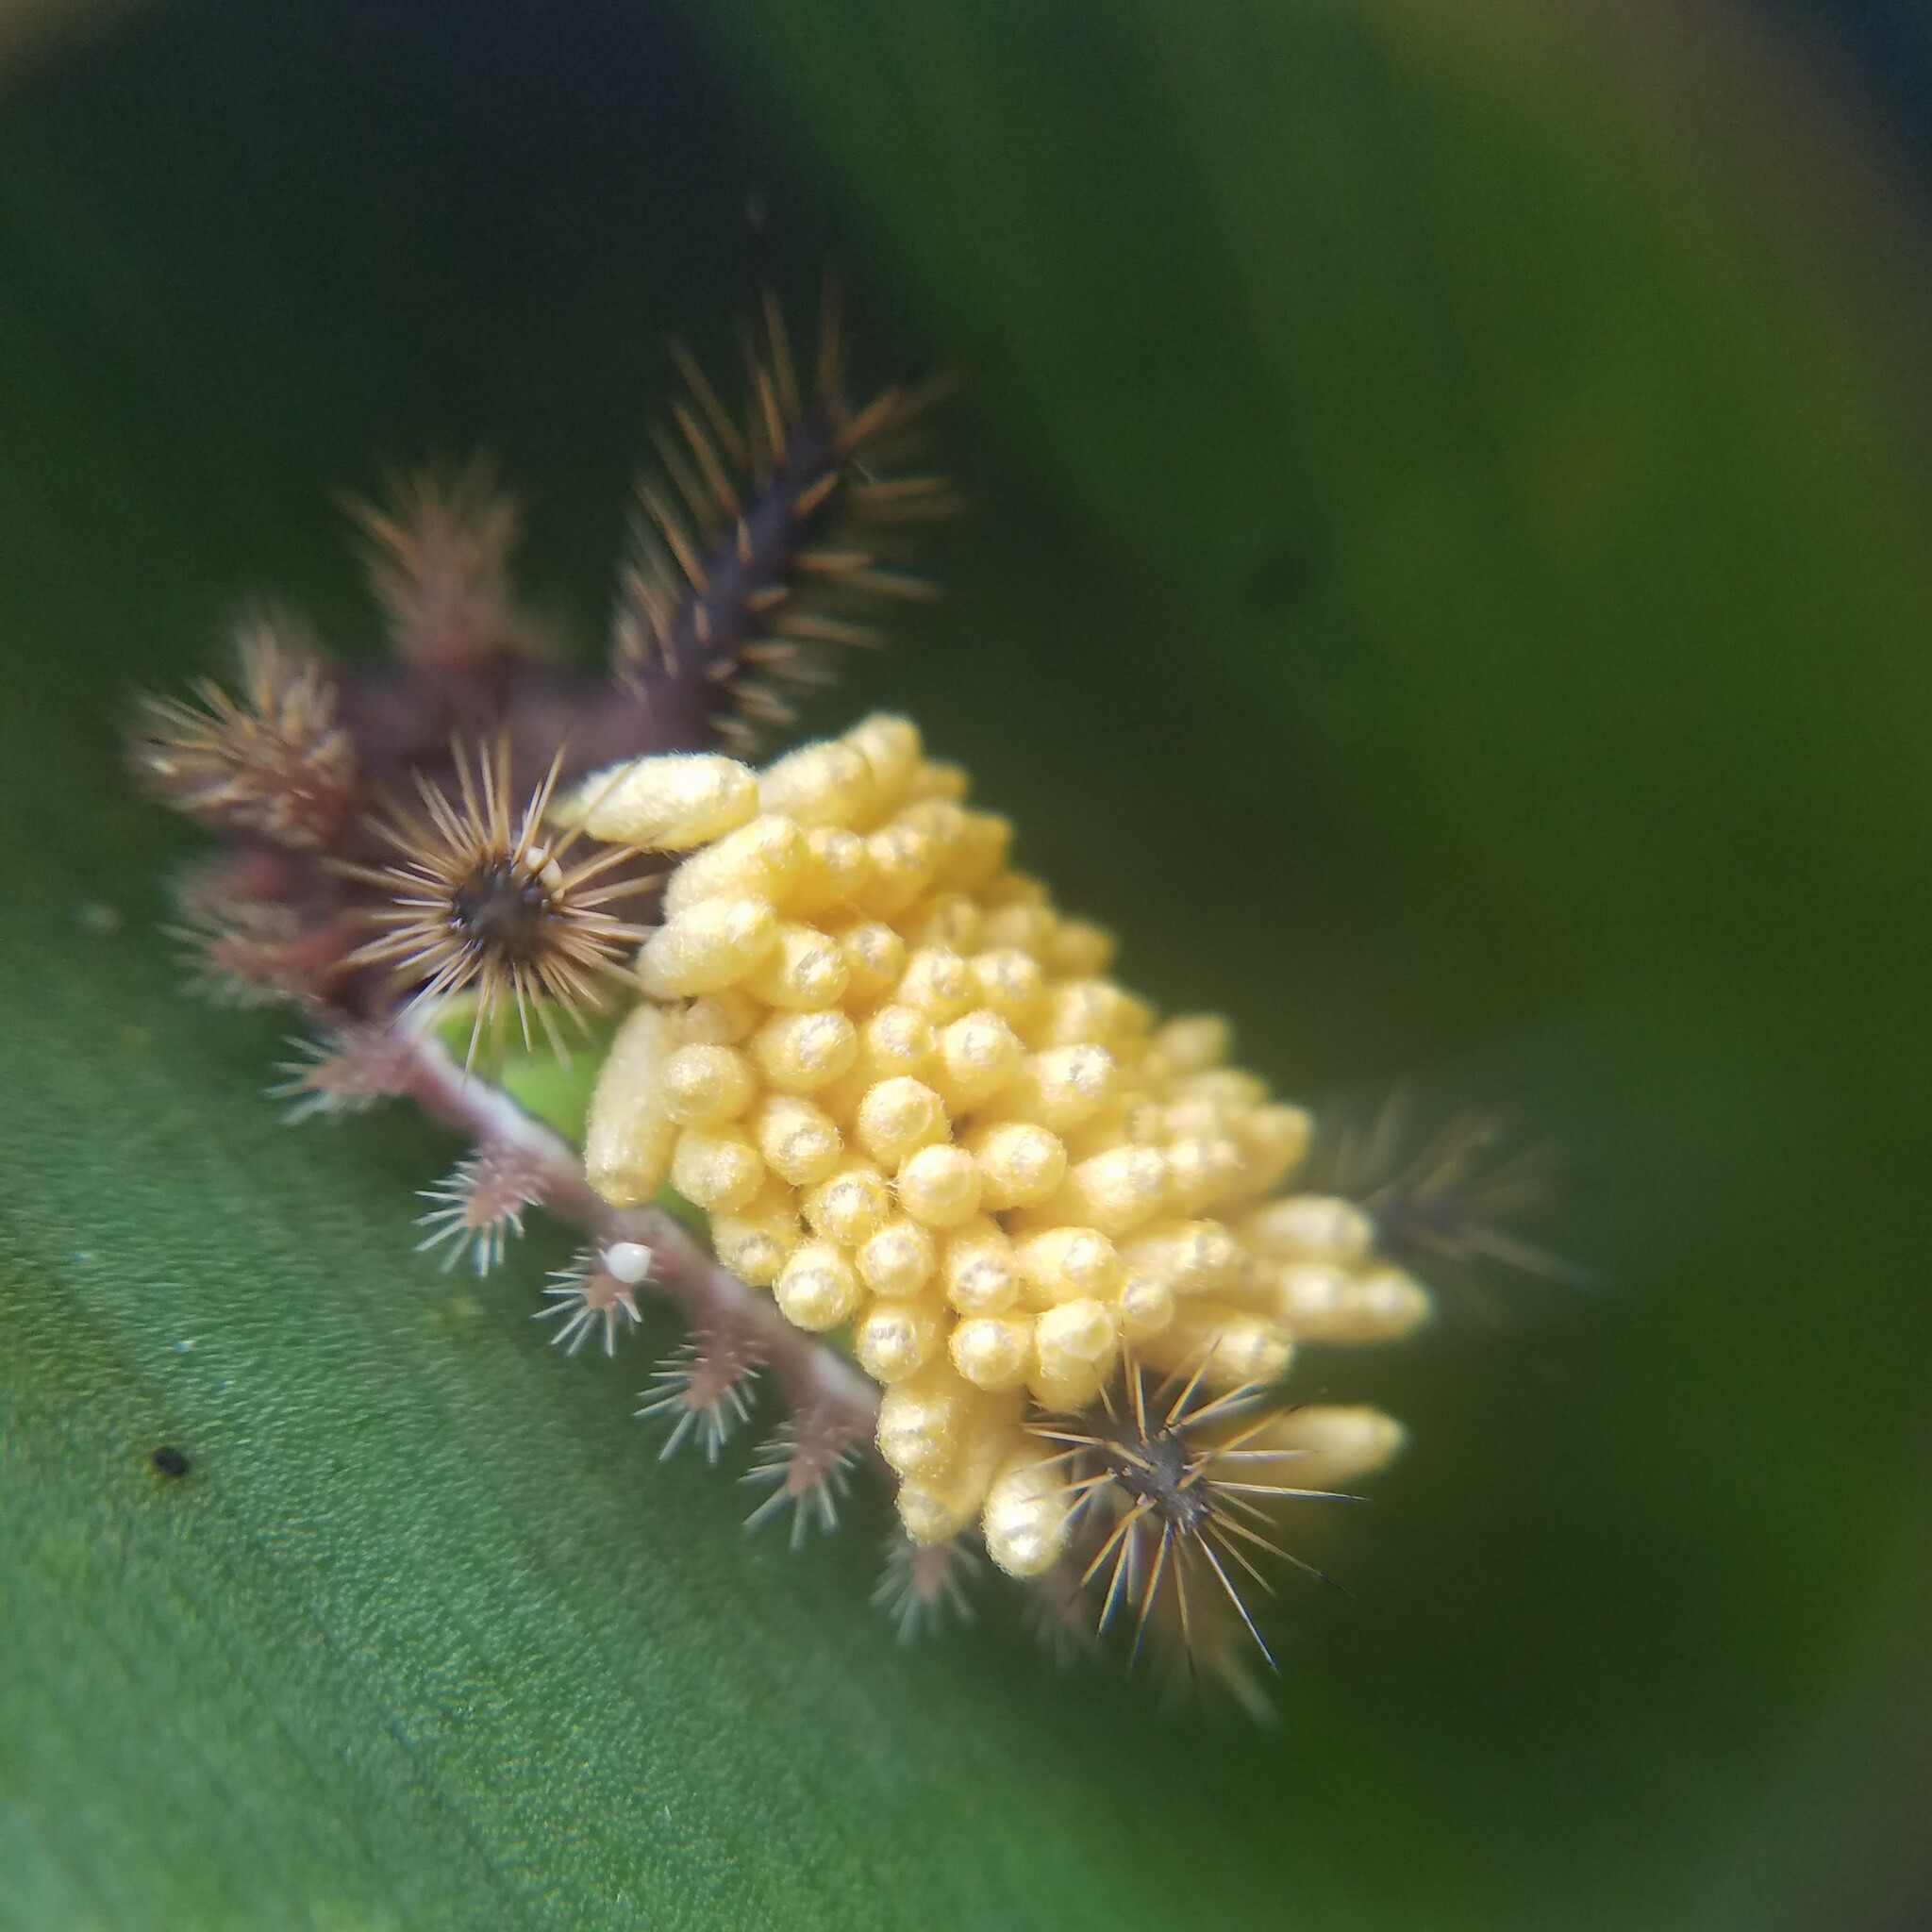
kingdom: Animalia
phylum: Arthropoda
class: Insecta
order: Hymenoptera
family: Braconidae
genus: Cotesia
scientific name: Cotesia empretiae
